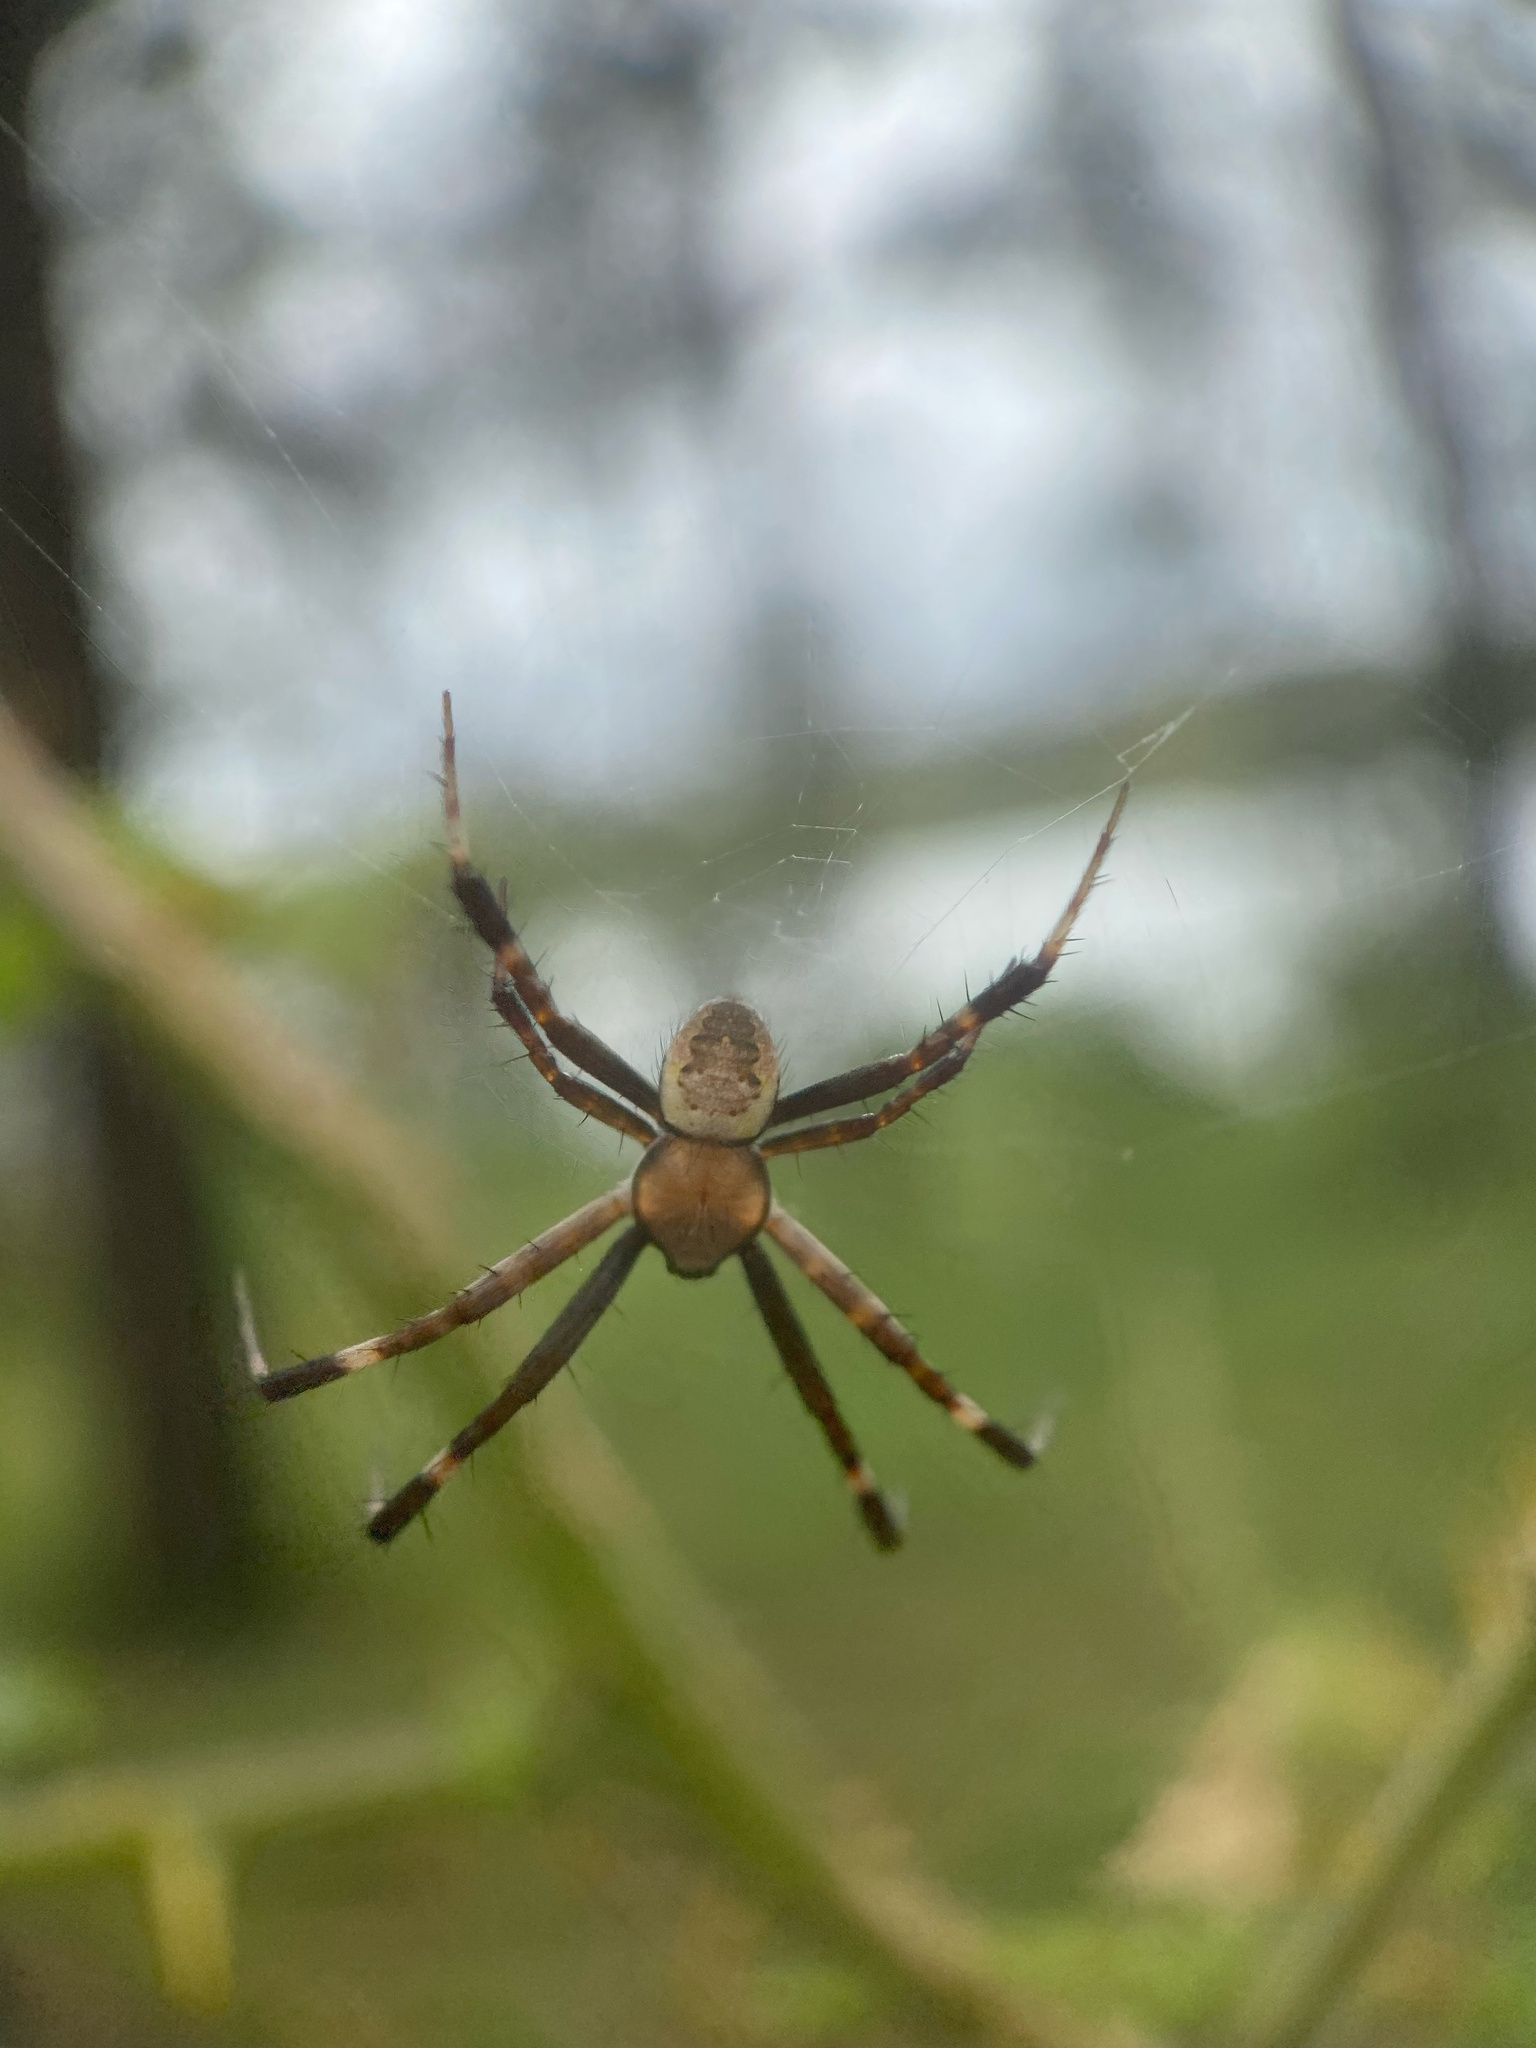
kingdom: Animalia
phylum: Arthropoda
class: Arachnida
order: Araneae
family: Araneidae
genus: Argiope
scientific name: Argiope keyserlingi
